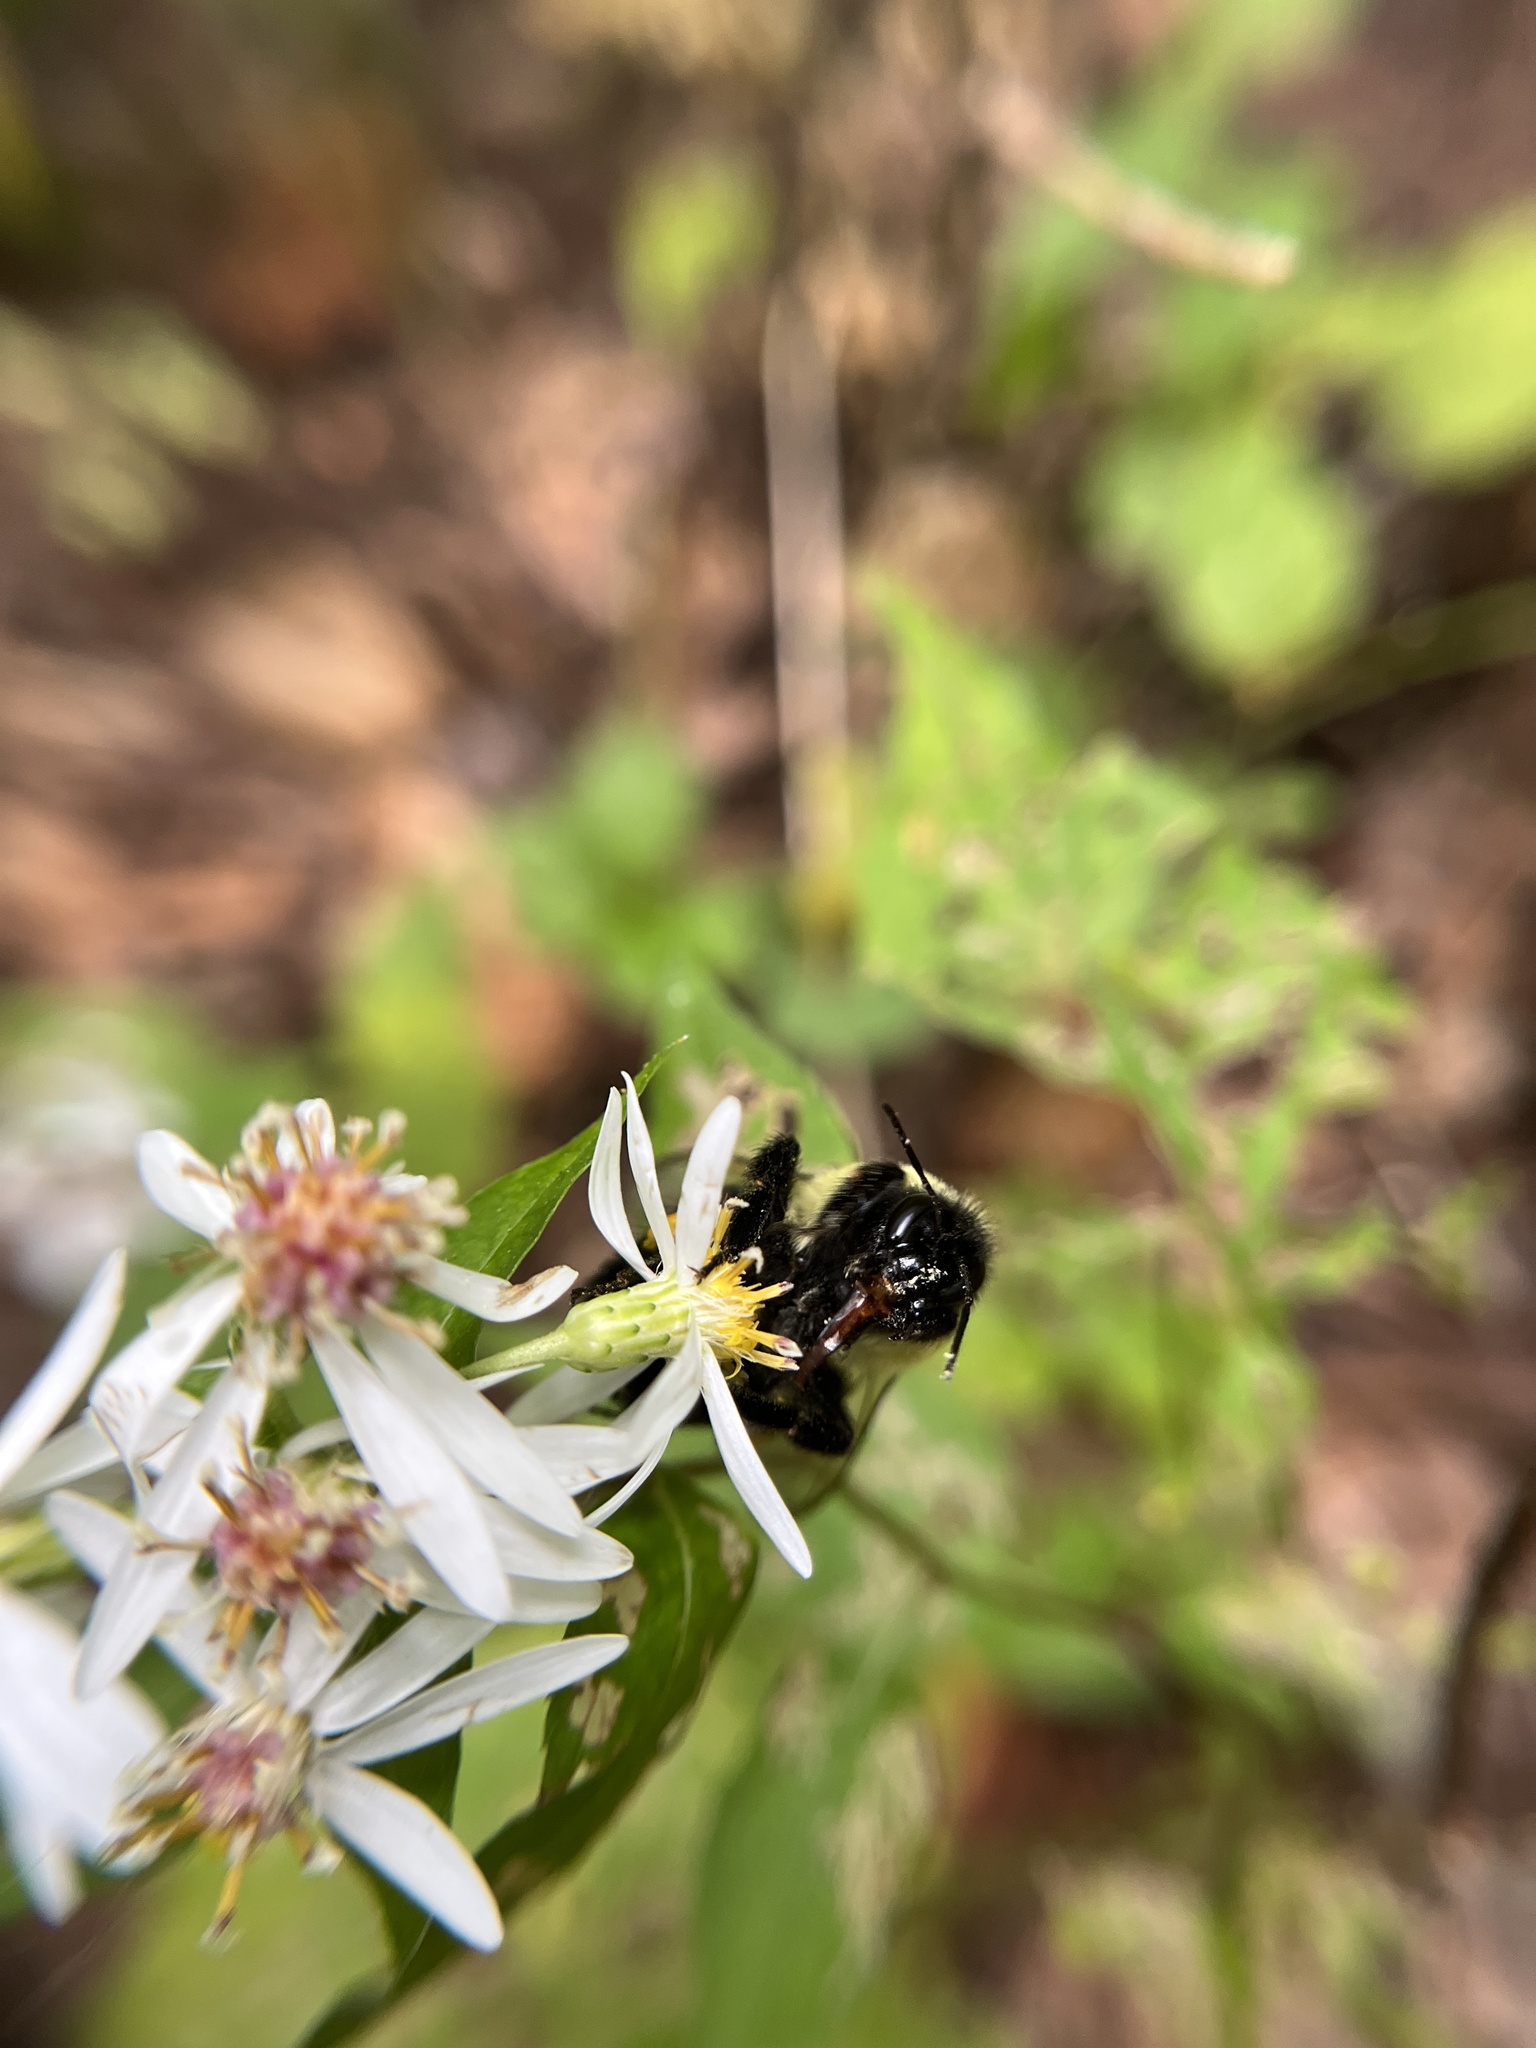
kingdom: Animalia
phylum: Arthropoda
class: Insecta
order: Hymenoptera
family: Apidae
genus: Bombus
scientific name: Bombus impatiens
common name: Common eastern bumble bee
